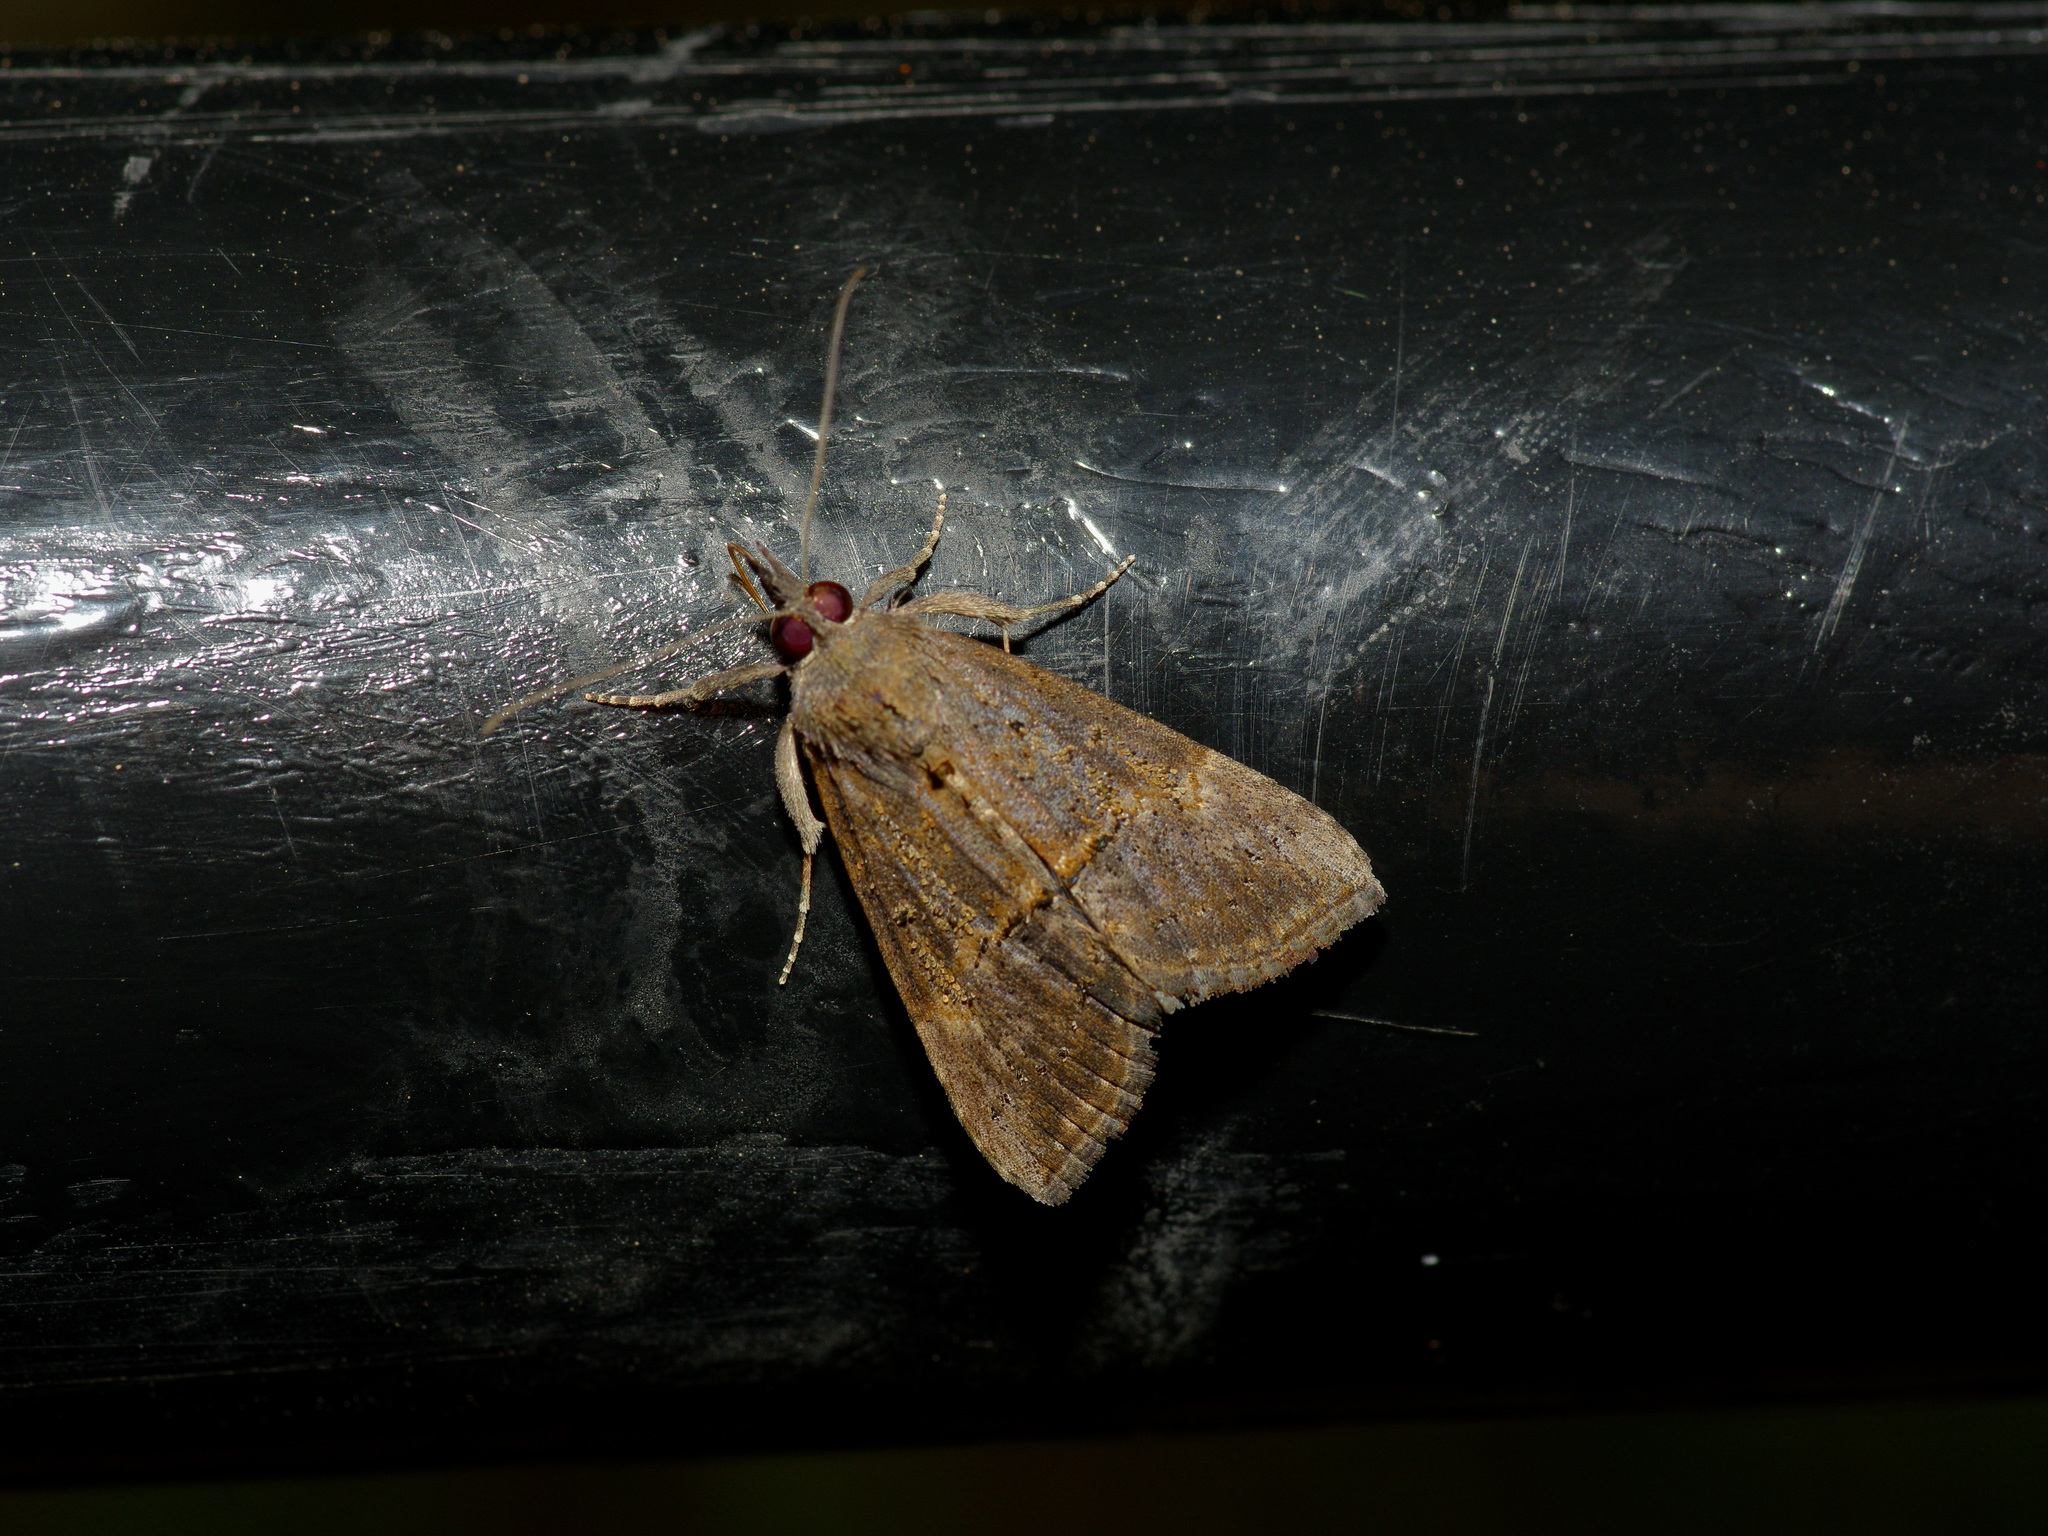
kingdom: Animalia
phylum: Arthropoda
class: Insecta
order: Lepidoptera
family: Erebidae
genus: Hypena
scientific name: Hypena scabra
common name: Green cloverworm
